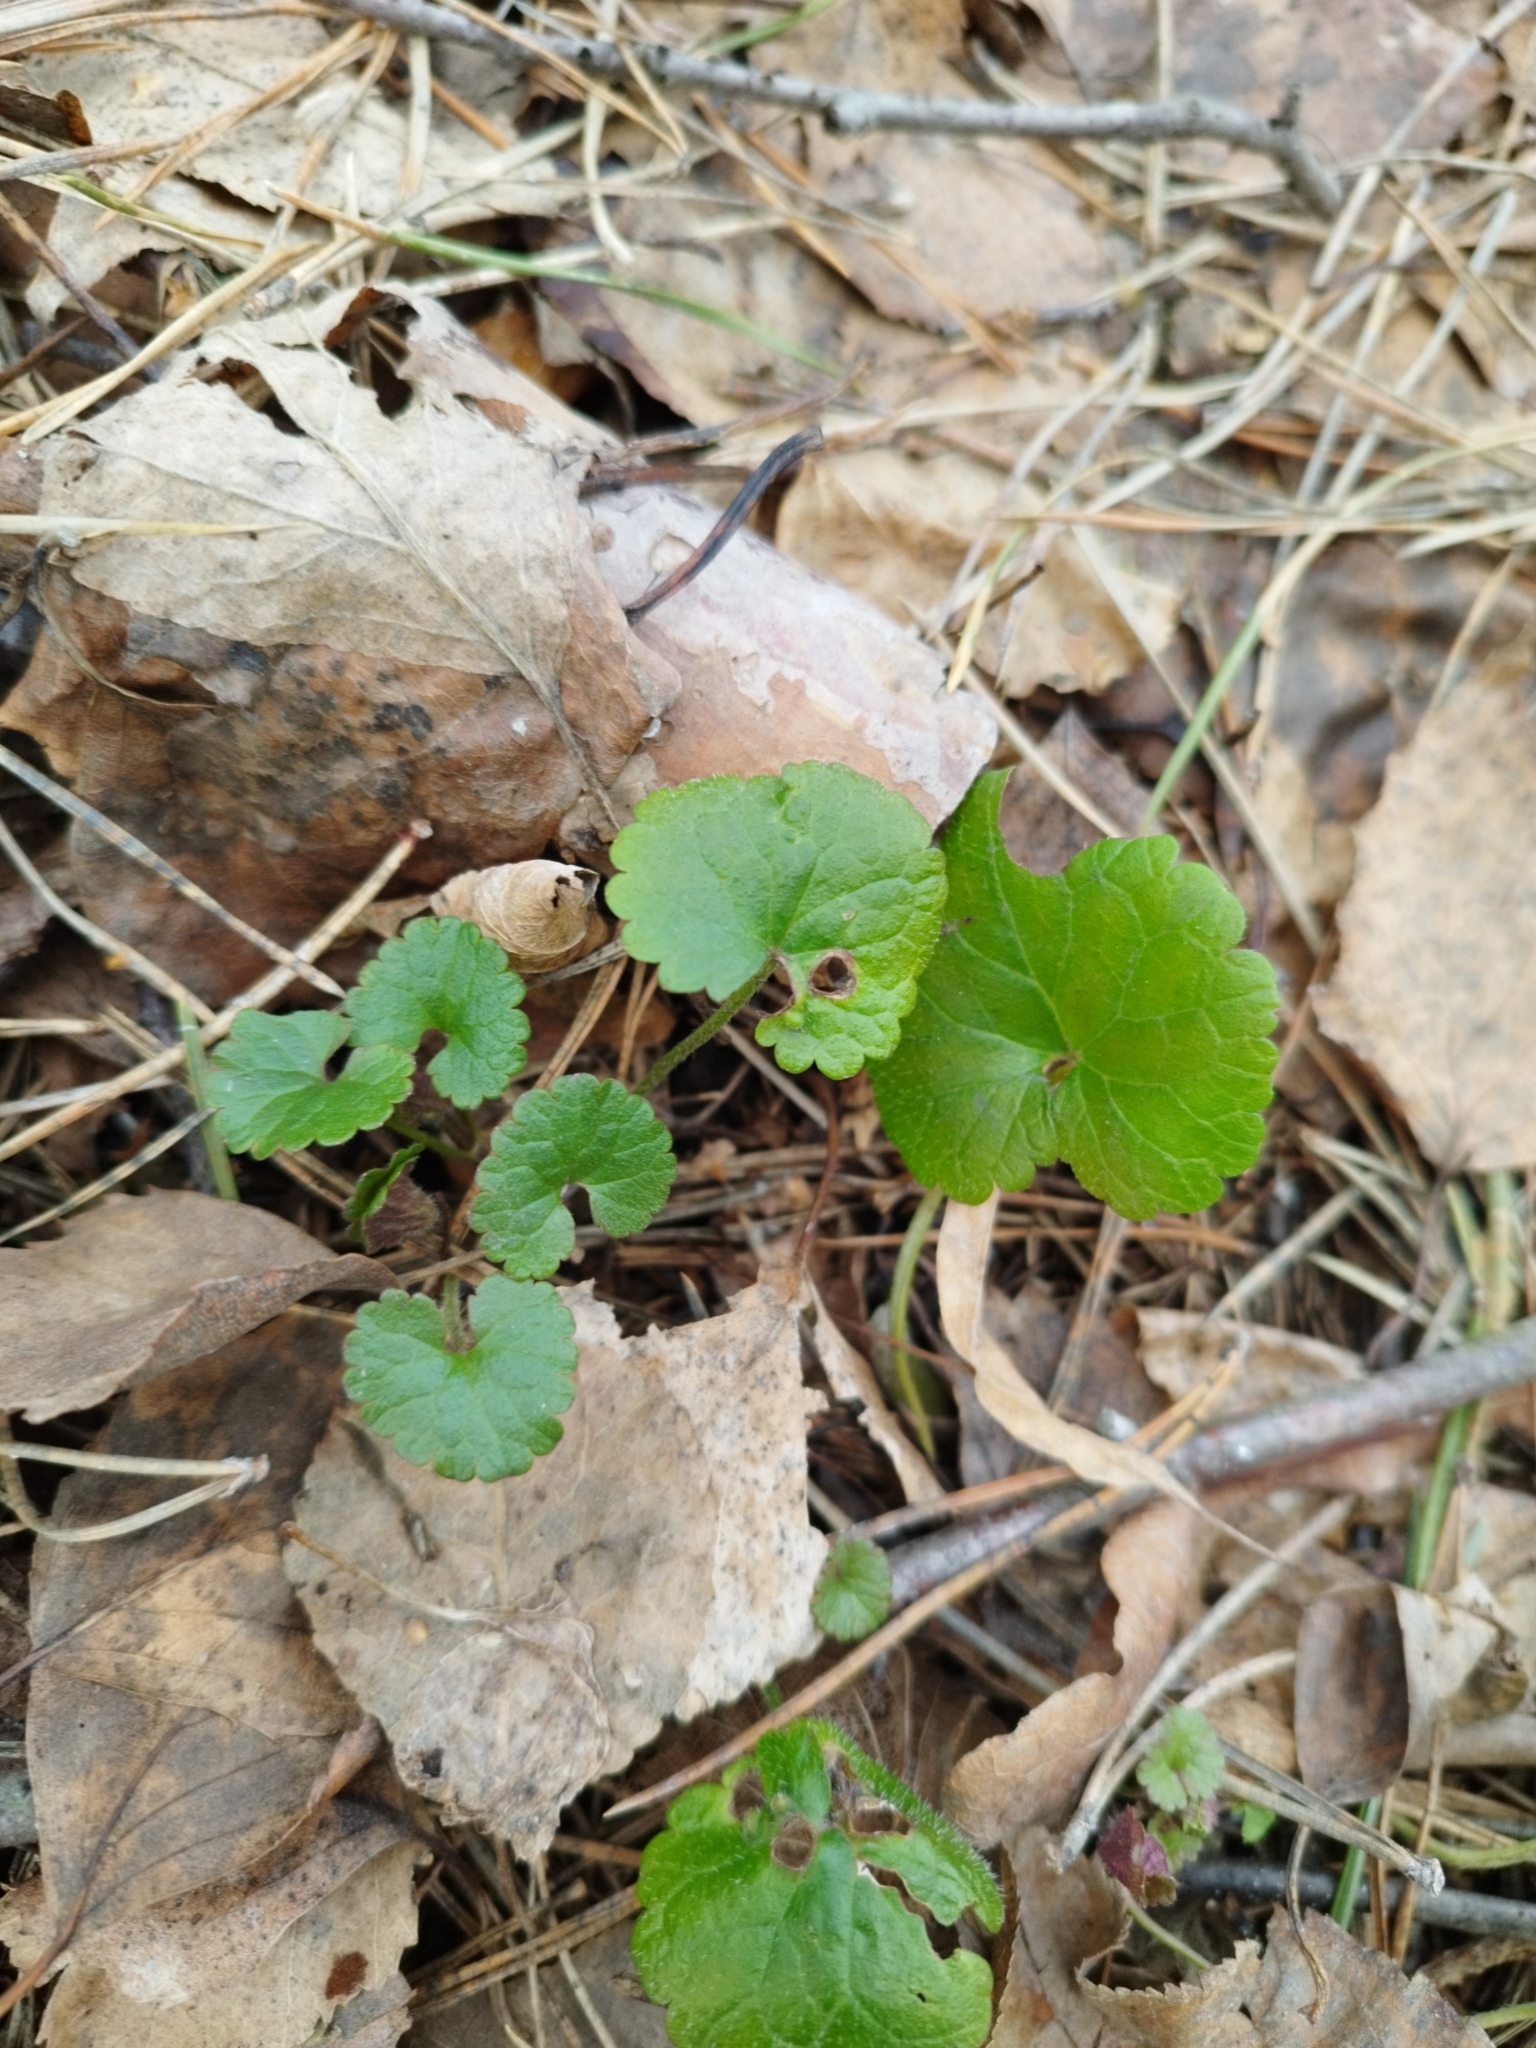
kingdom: Plantae
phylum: Tracheophyta
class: Magnoliopsida
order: Lamiales
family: Lamiaceae
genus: Glechoma
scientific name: Glechoma hederacea
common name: Ground ivy
